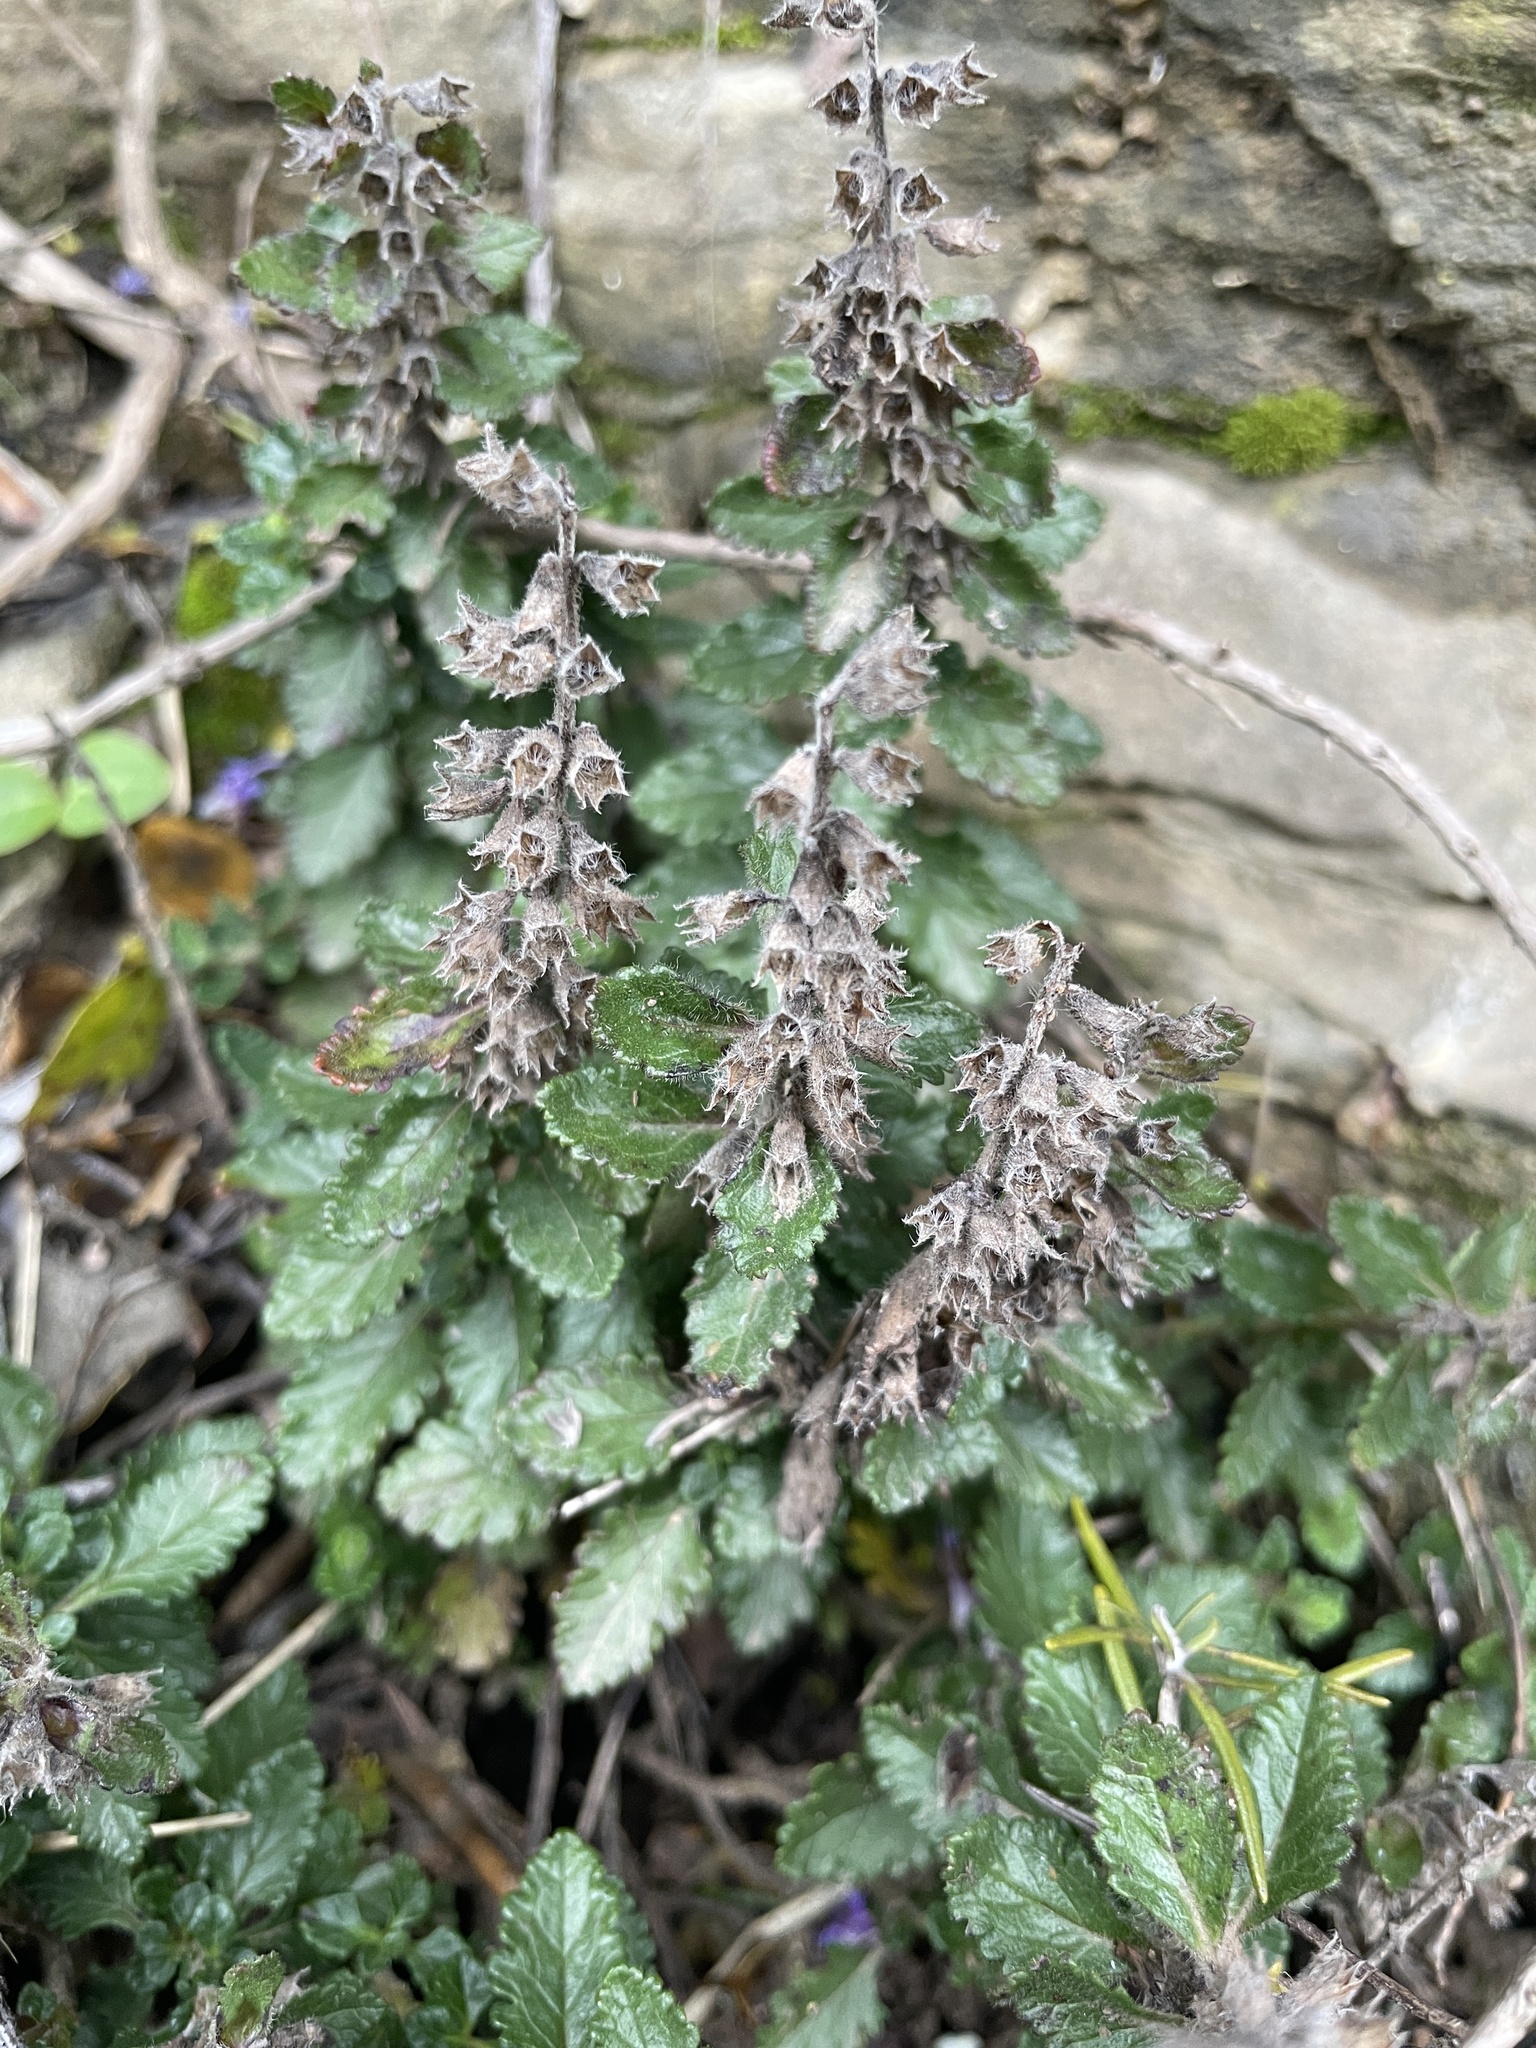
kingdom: Plantae
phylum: Tracheophyta
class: Magnoliopsida
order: Lamiales
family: Lamiaceae
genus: Teucrium
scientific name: Teucrium chamaedrys
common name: Wall germander
